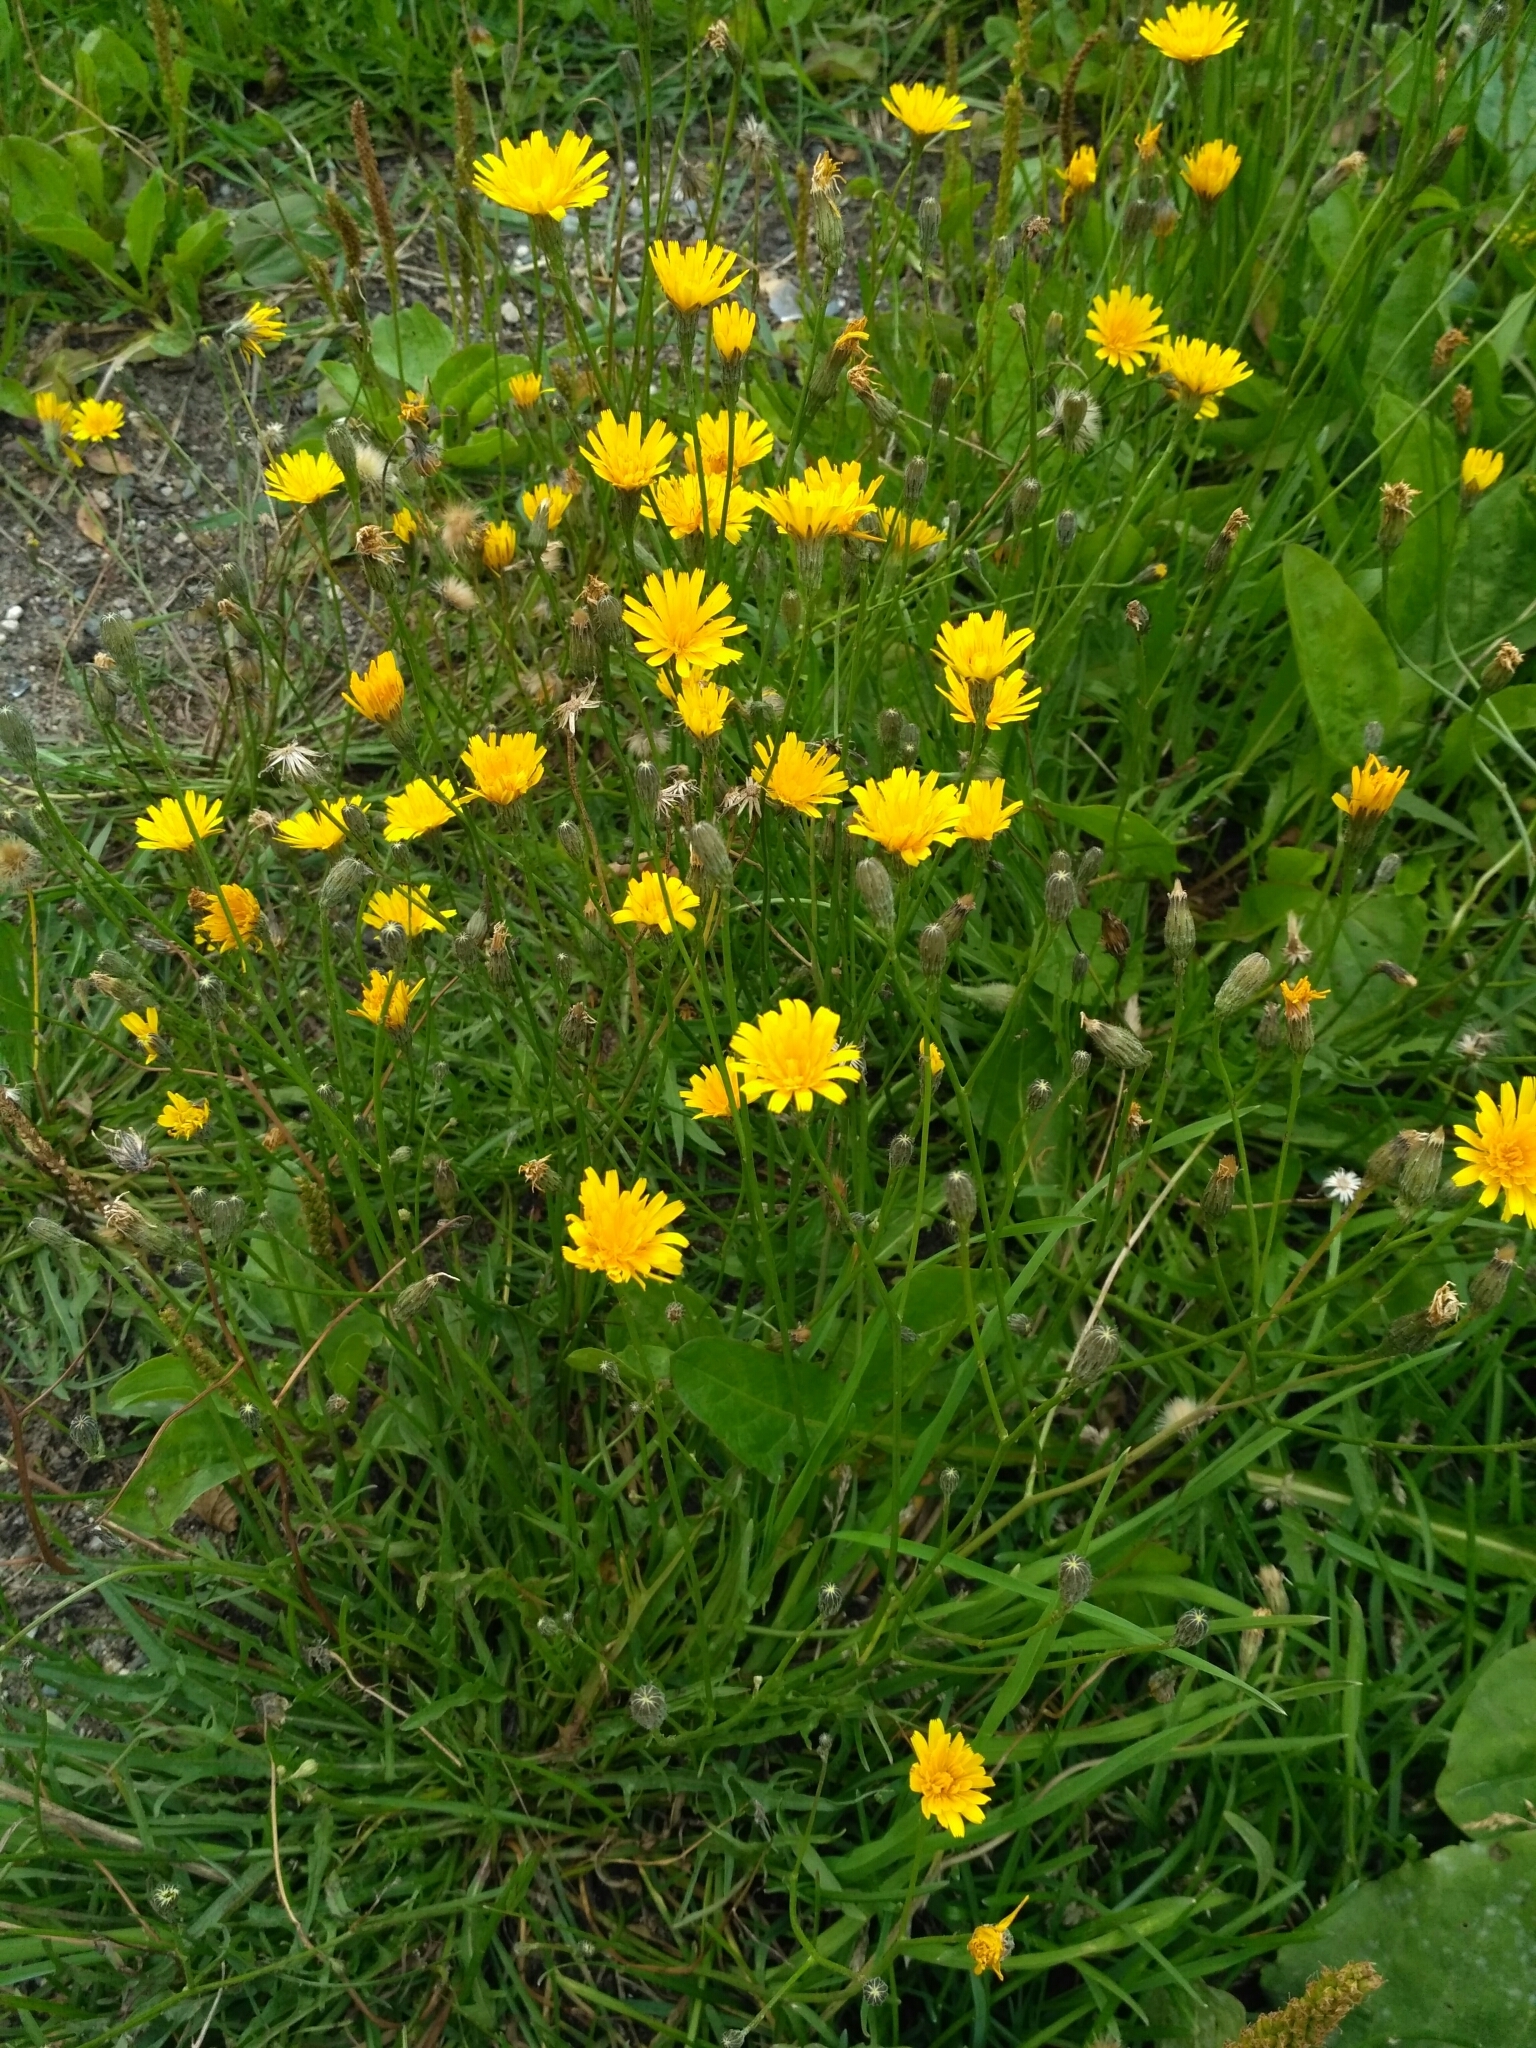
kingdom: Plantae
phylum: Tracheophyta
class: Magnoliopsida
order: Asterales
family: Asteraceae
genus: Scorzoneroides
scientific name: Scorzoneroides autumnalis
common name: Autumn hawkbit
